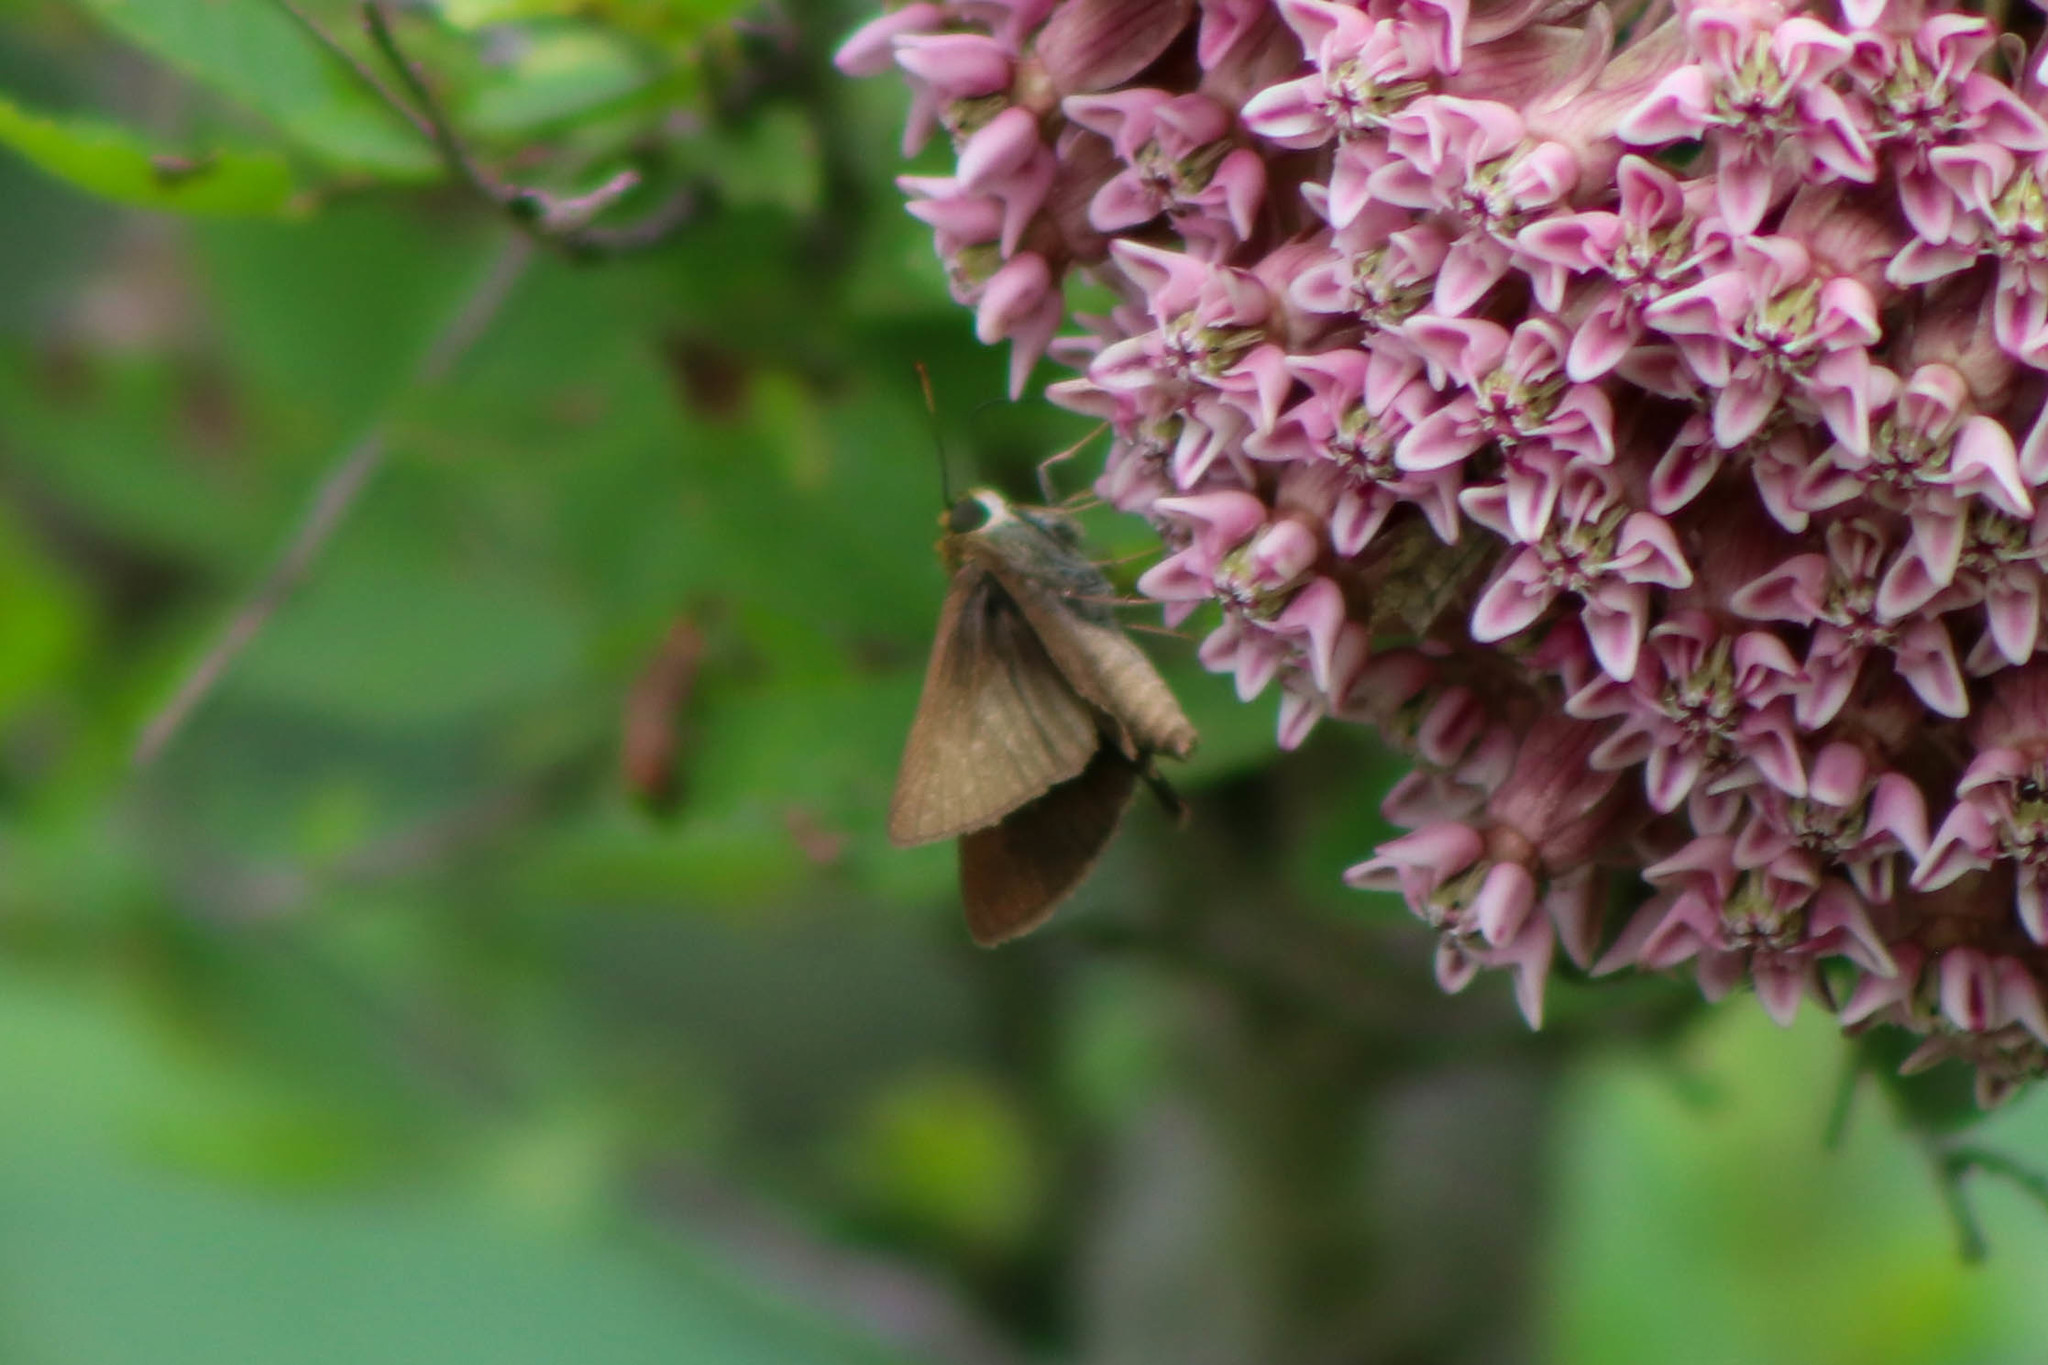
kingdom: Animalia
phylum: Arthropoda
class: Insecta
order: Lepidoptera
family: Hesperiidae
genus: Euphyes
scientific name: Euphyes vestris
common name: Dun skipper
